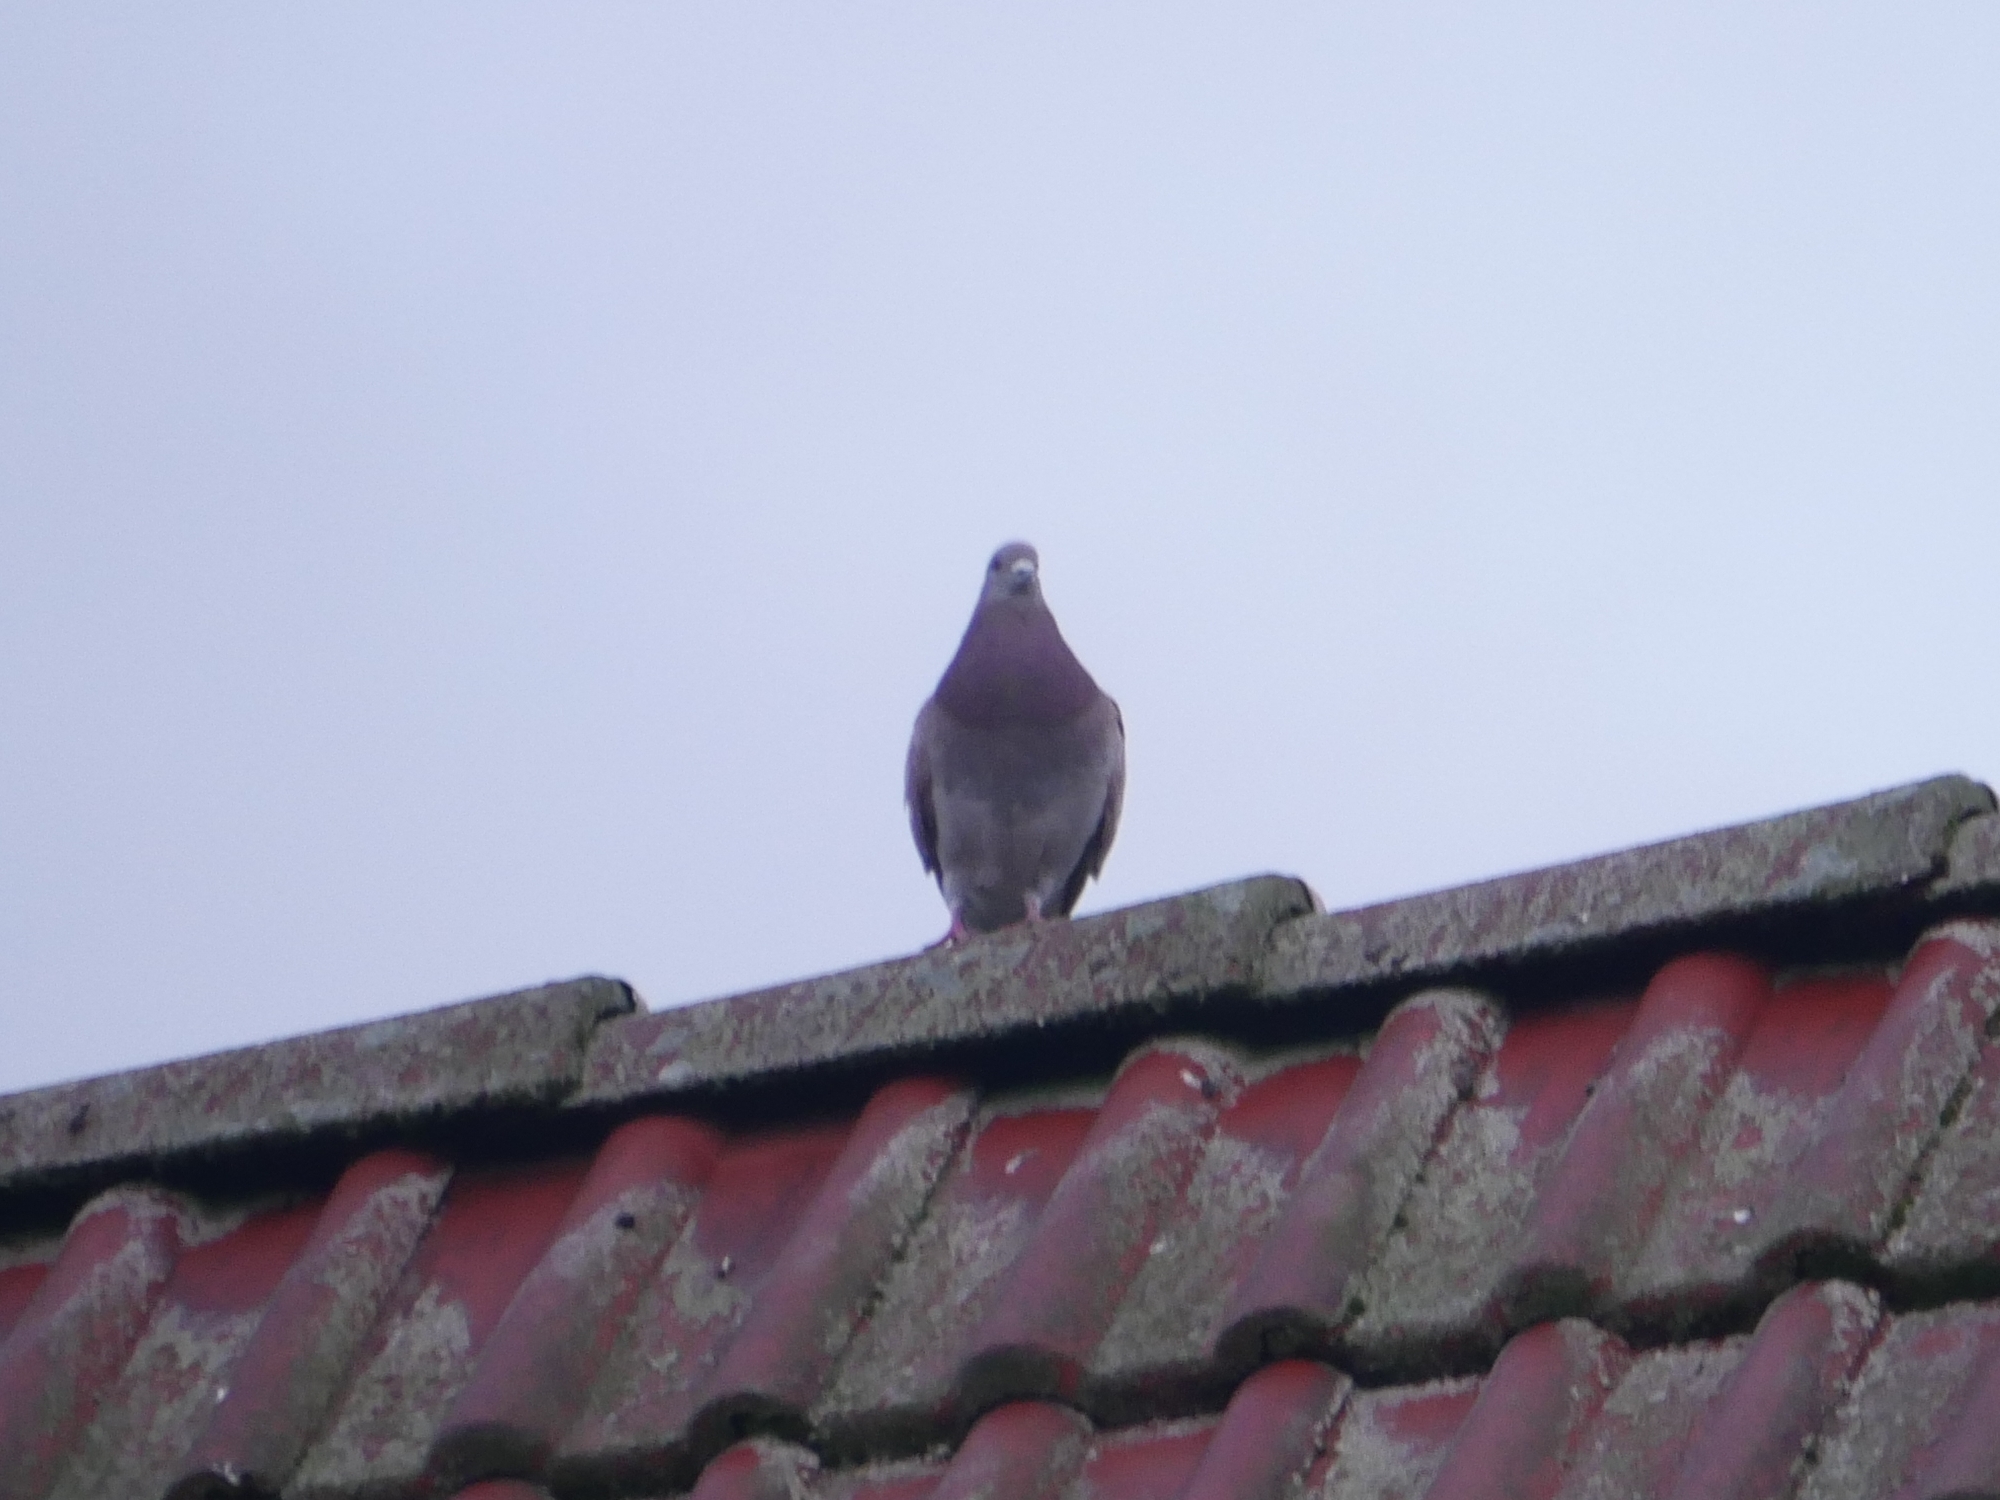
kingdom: Animalia
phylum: Chordata
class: Aves
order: Columbiformes
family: Columbidae
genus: Columba
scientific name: Columba livia
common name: Rock pigeon
